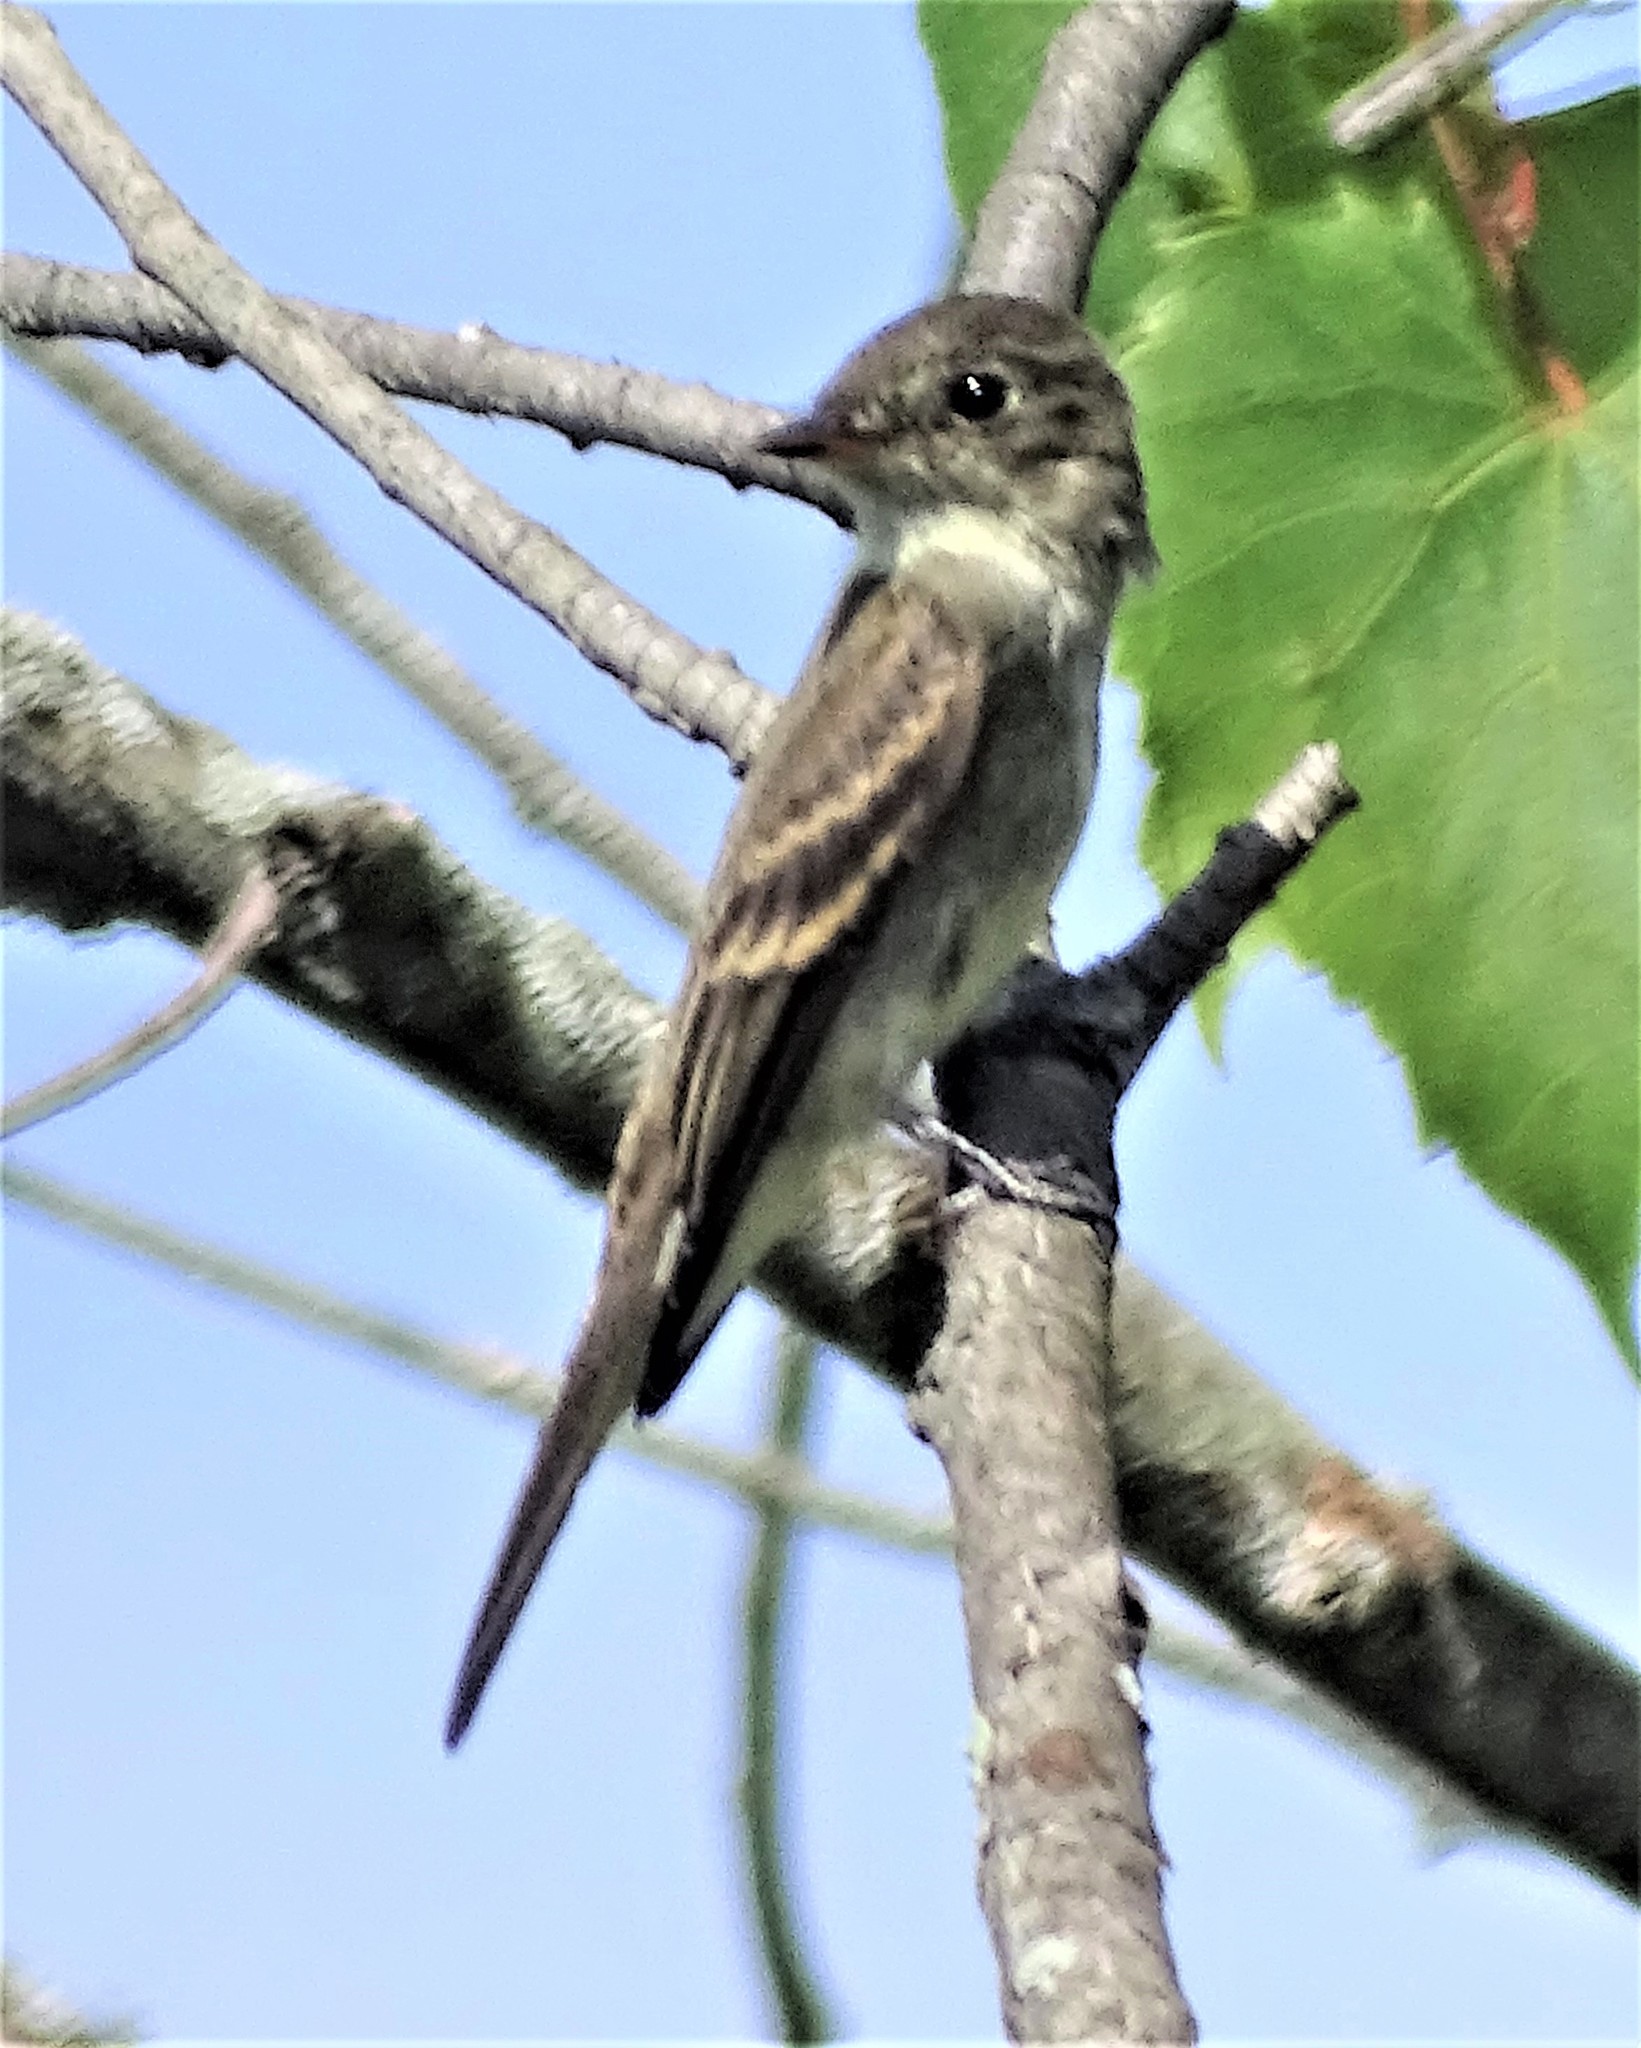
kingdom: Animalia
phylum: Chordata
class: Aves
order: Passeriformes
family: Tyrannidae
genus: Contopus
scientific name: Contopus virens
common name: Eastern wood-pewee
